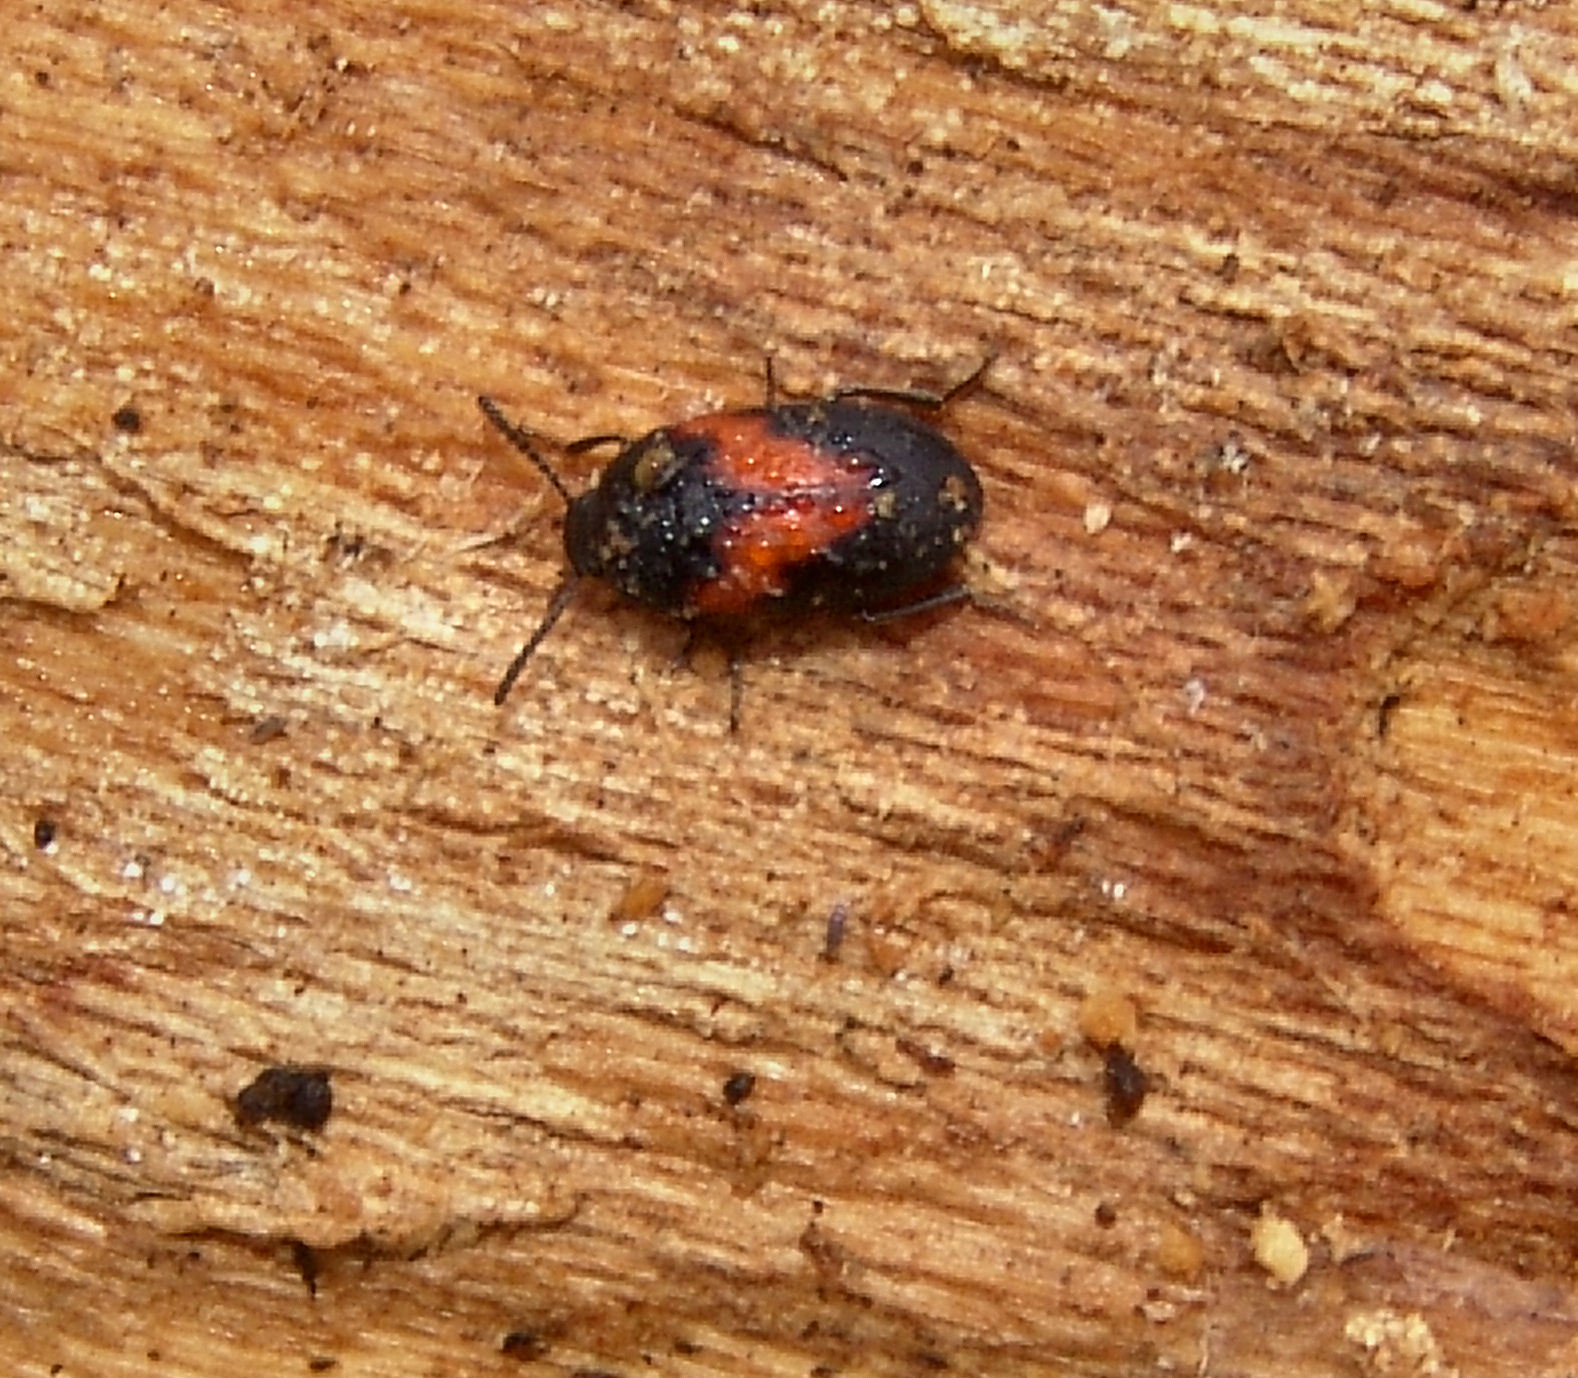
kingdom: Animalia
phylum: Arthropoda
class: Insecta
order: Coleoptera
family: Tenebrionidae
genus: Platydema
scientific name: Platydema elliptica
